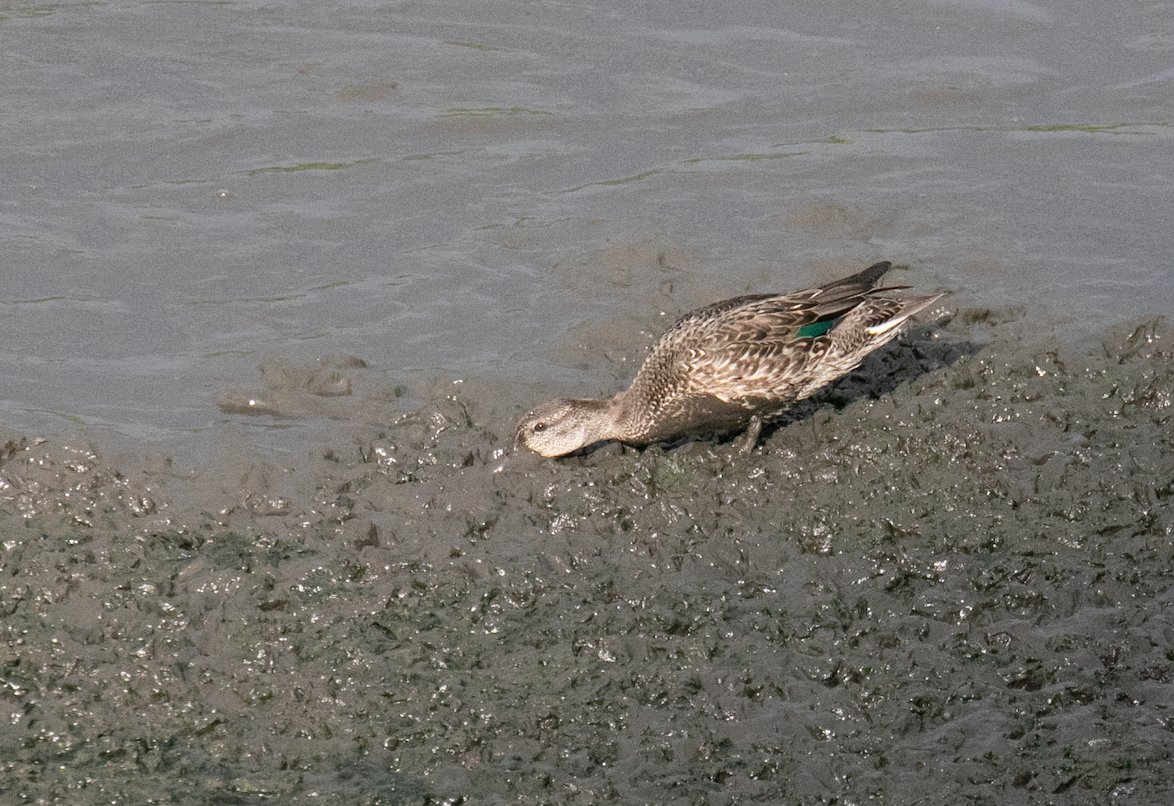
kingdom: Animalia
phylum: Chordata
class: Aves
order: Anseriformes
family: Anatidae
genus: Anas
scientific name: Anas crecca
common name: Eurasian teal
